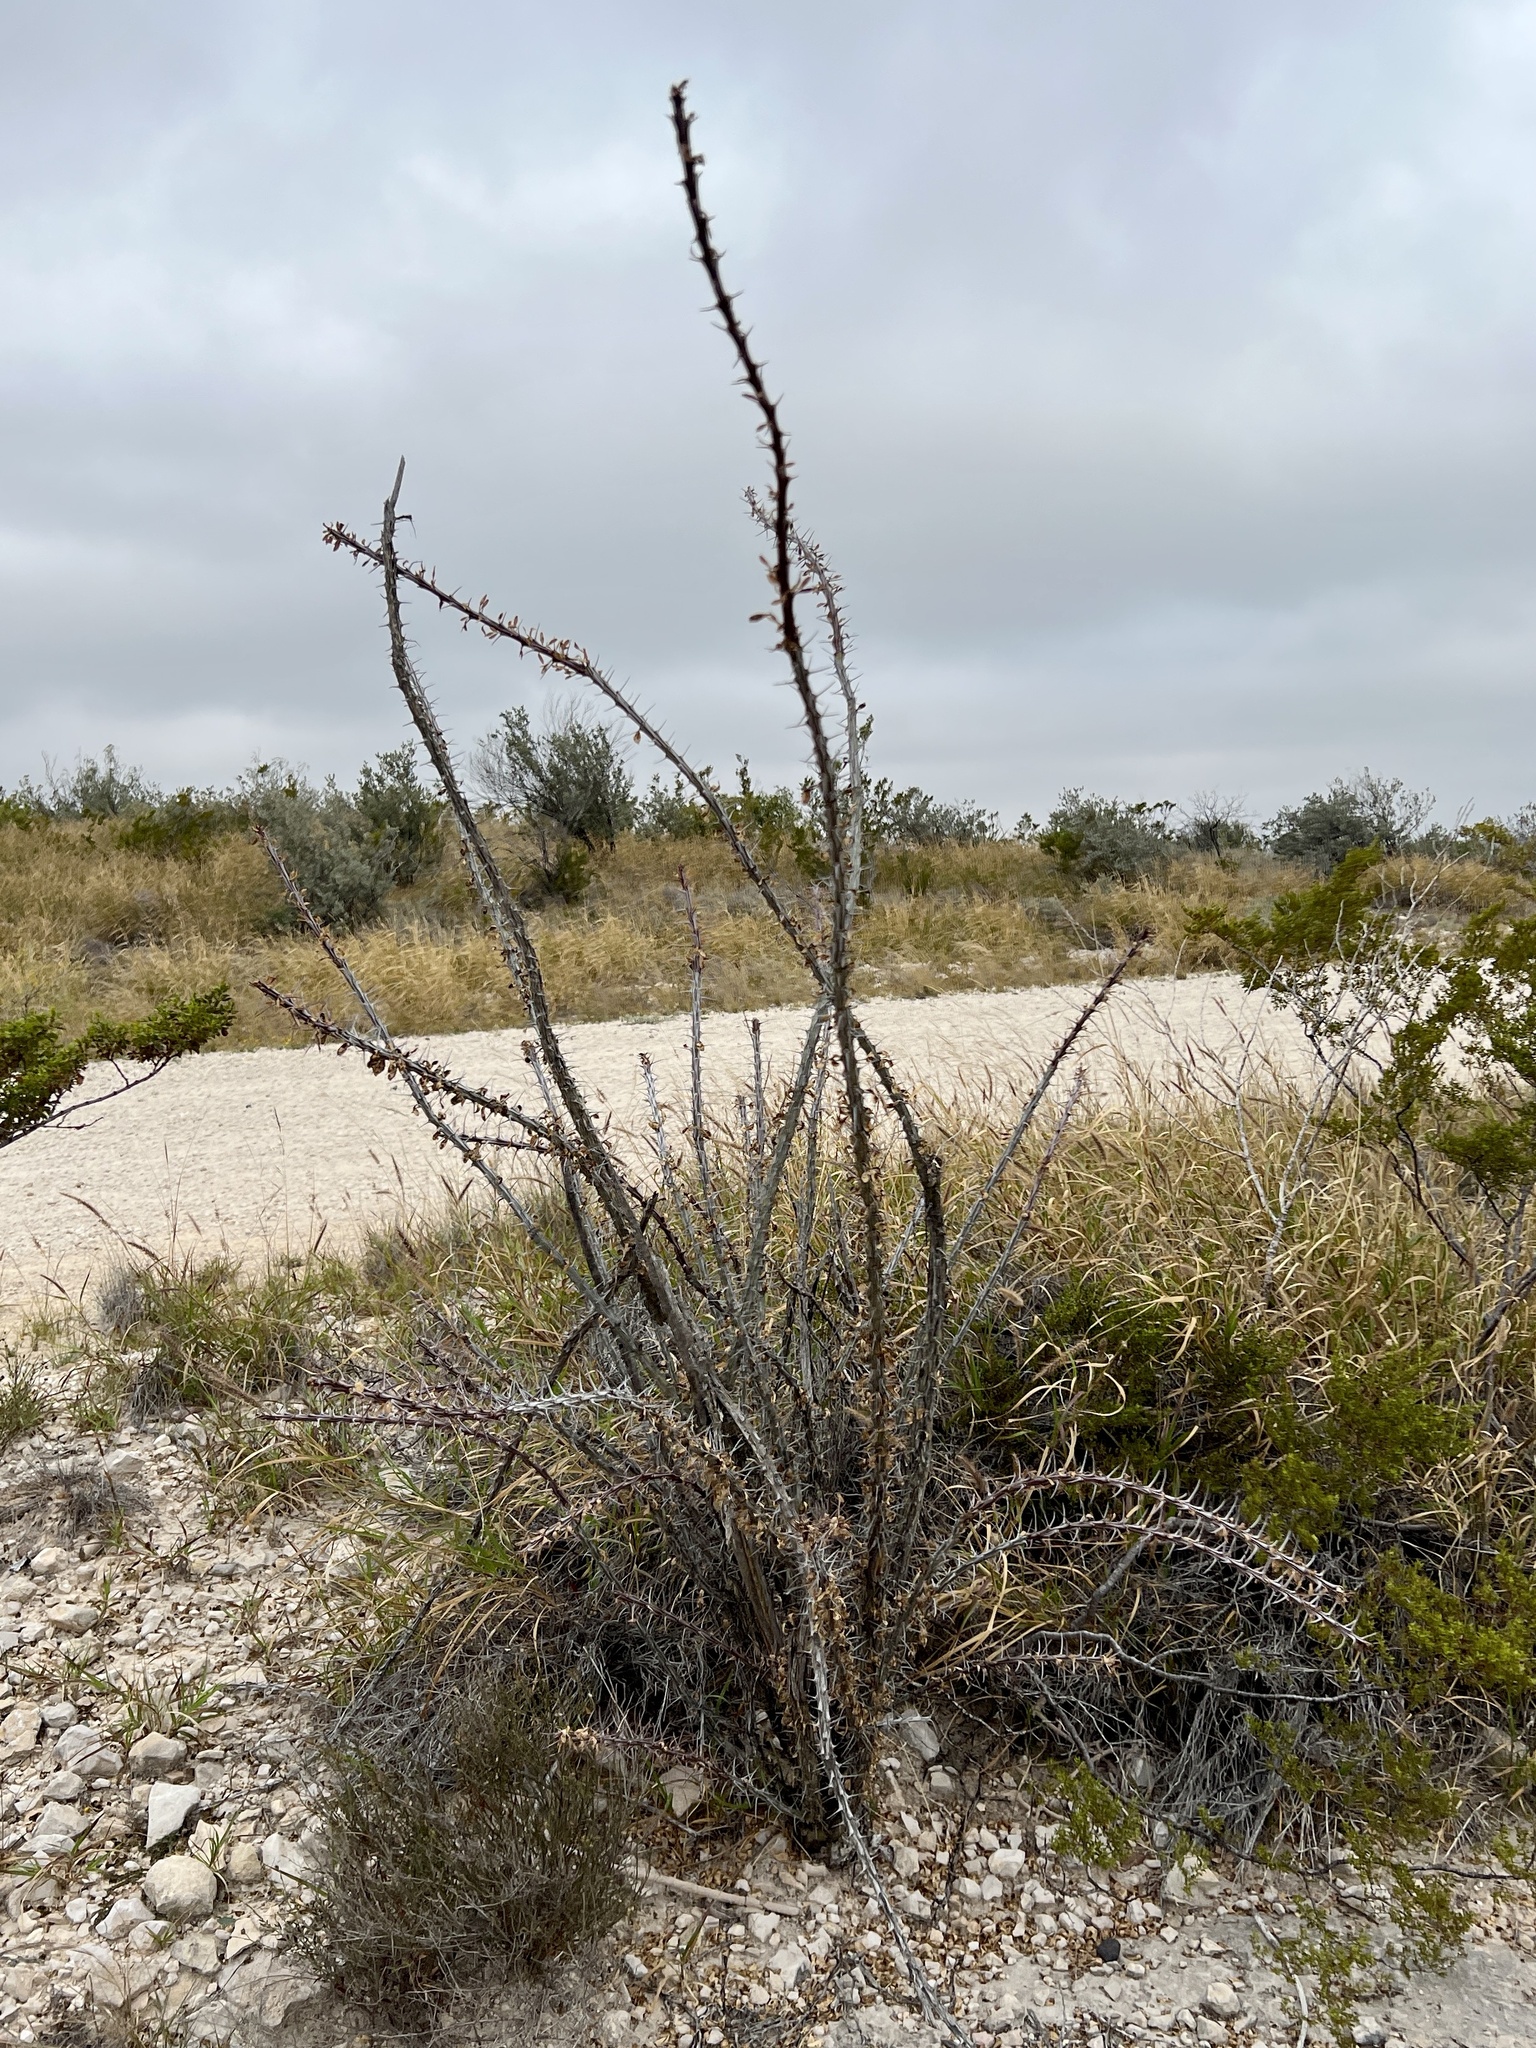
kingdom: Plantae
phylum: Tracheophyta
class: Magnoliopsida
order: Ericales
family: Fouquieriaceae
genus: Fouquieria
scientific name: Fouquieria splendens
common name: Vine-cactus
